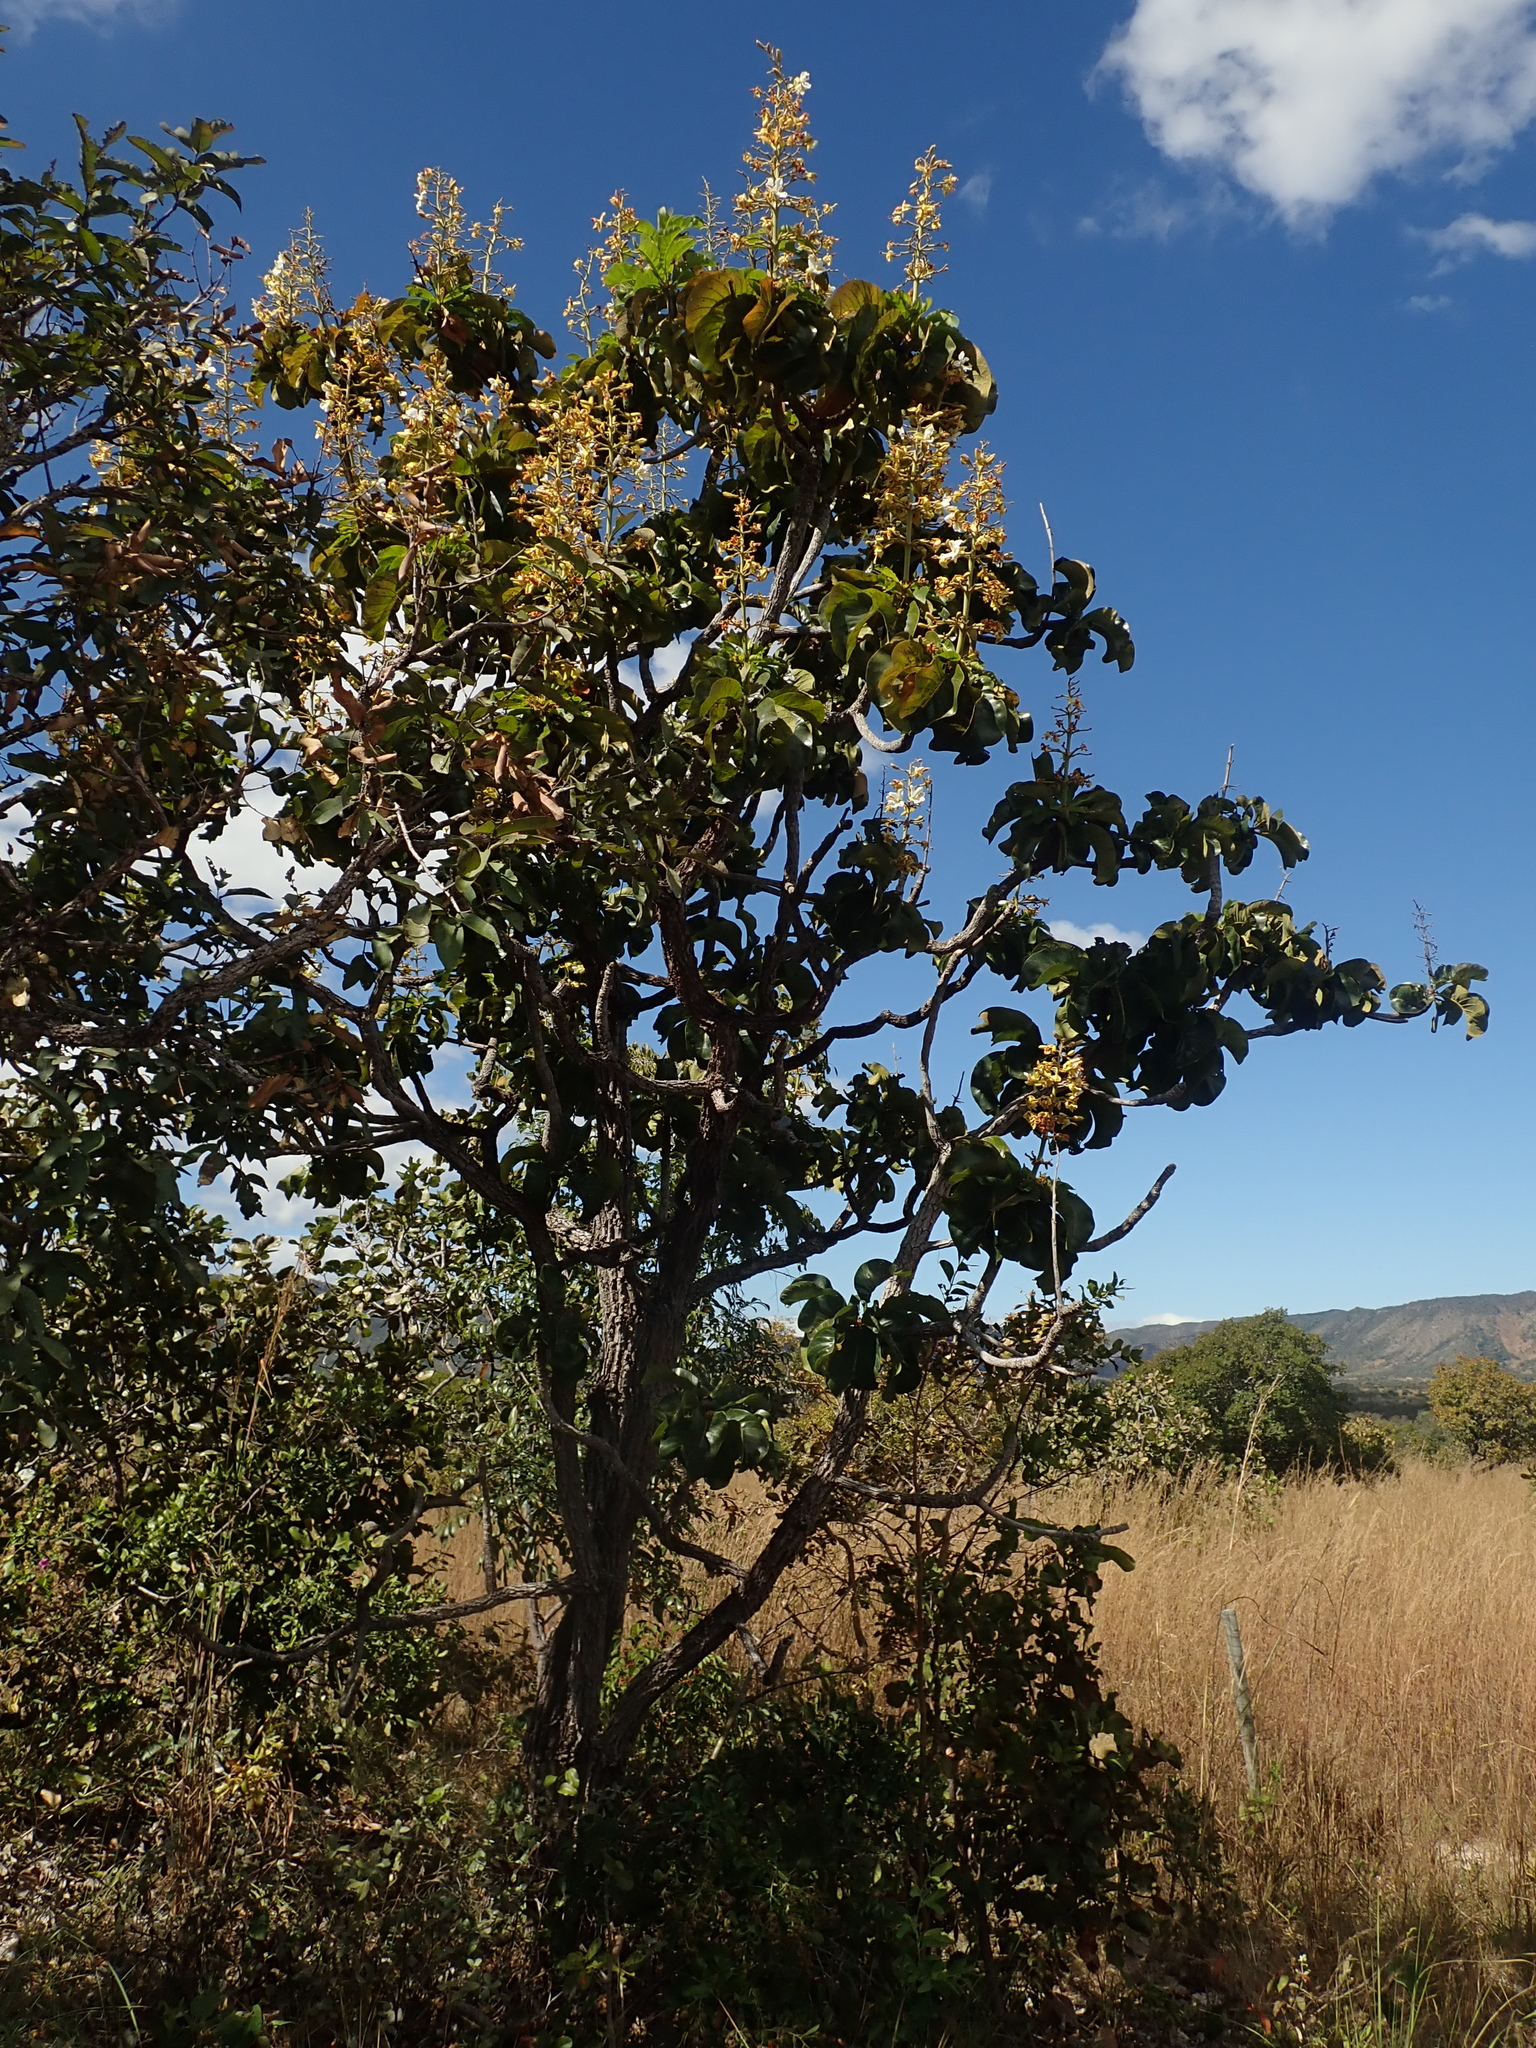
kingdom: Plantae
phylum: Tracheophyta
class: Magnoliopsida
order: Myrtales
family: Vochysiaceae
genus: Salvertia
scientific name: Salvertia convallariodora
